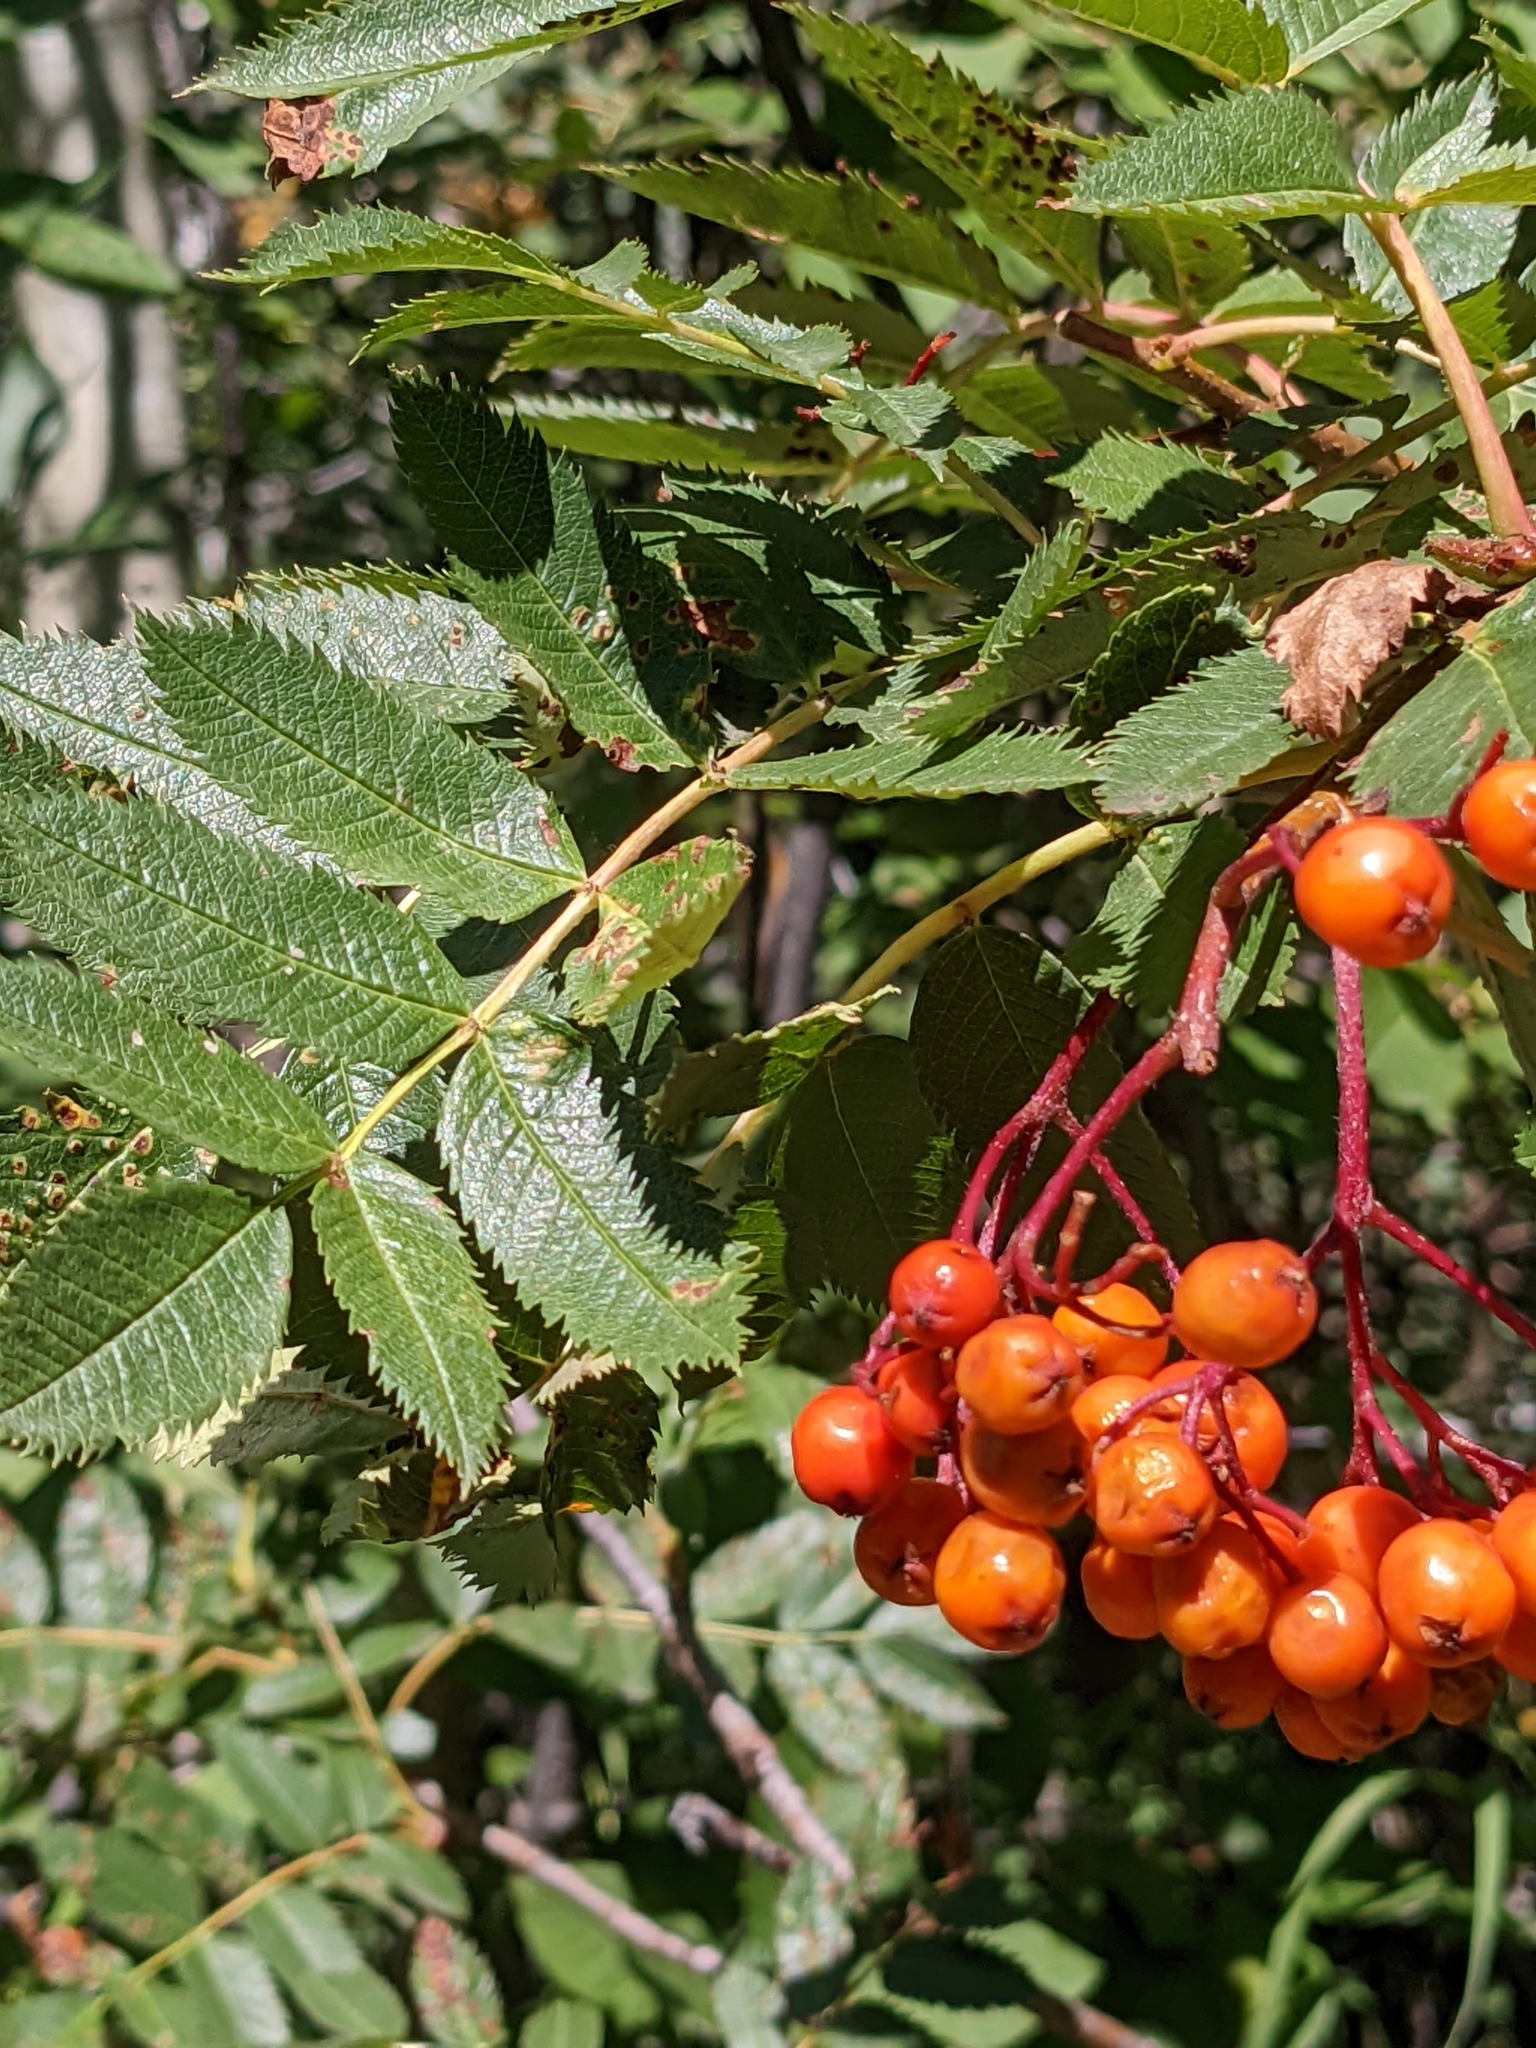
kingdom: Plantae
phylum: Tracheophyta
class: Magnoliopsida
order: Rosales
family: Rosaceae
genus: Sorbus
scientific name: Sorbus scopulina
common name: Greene's mountain-ash
